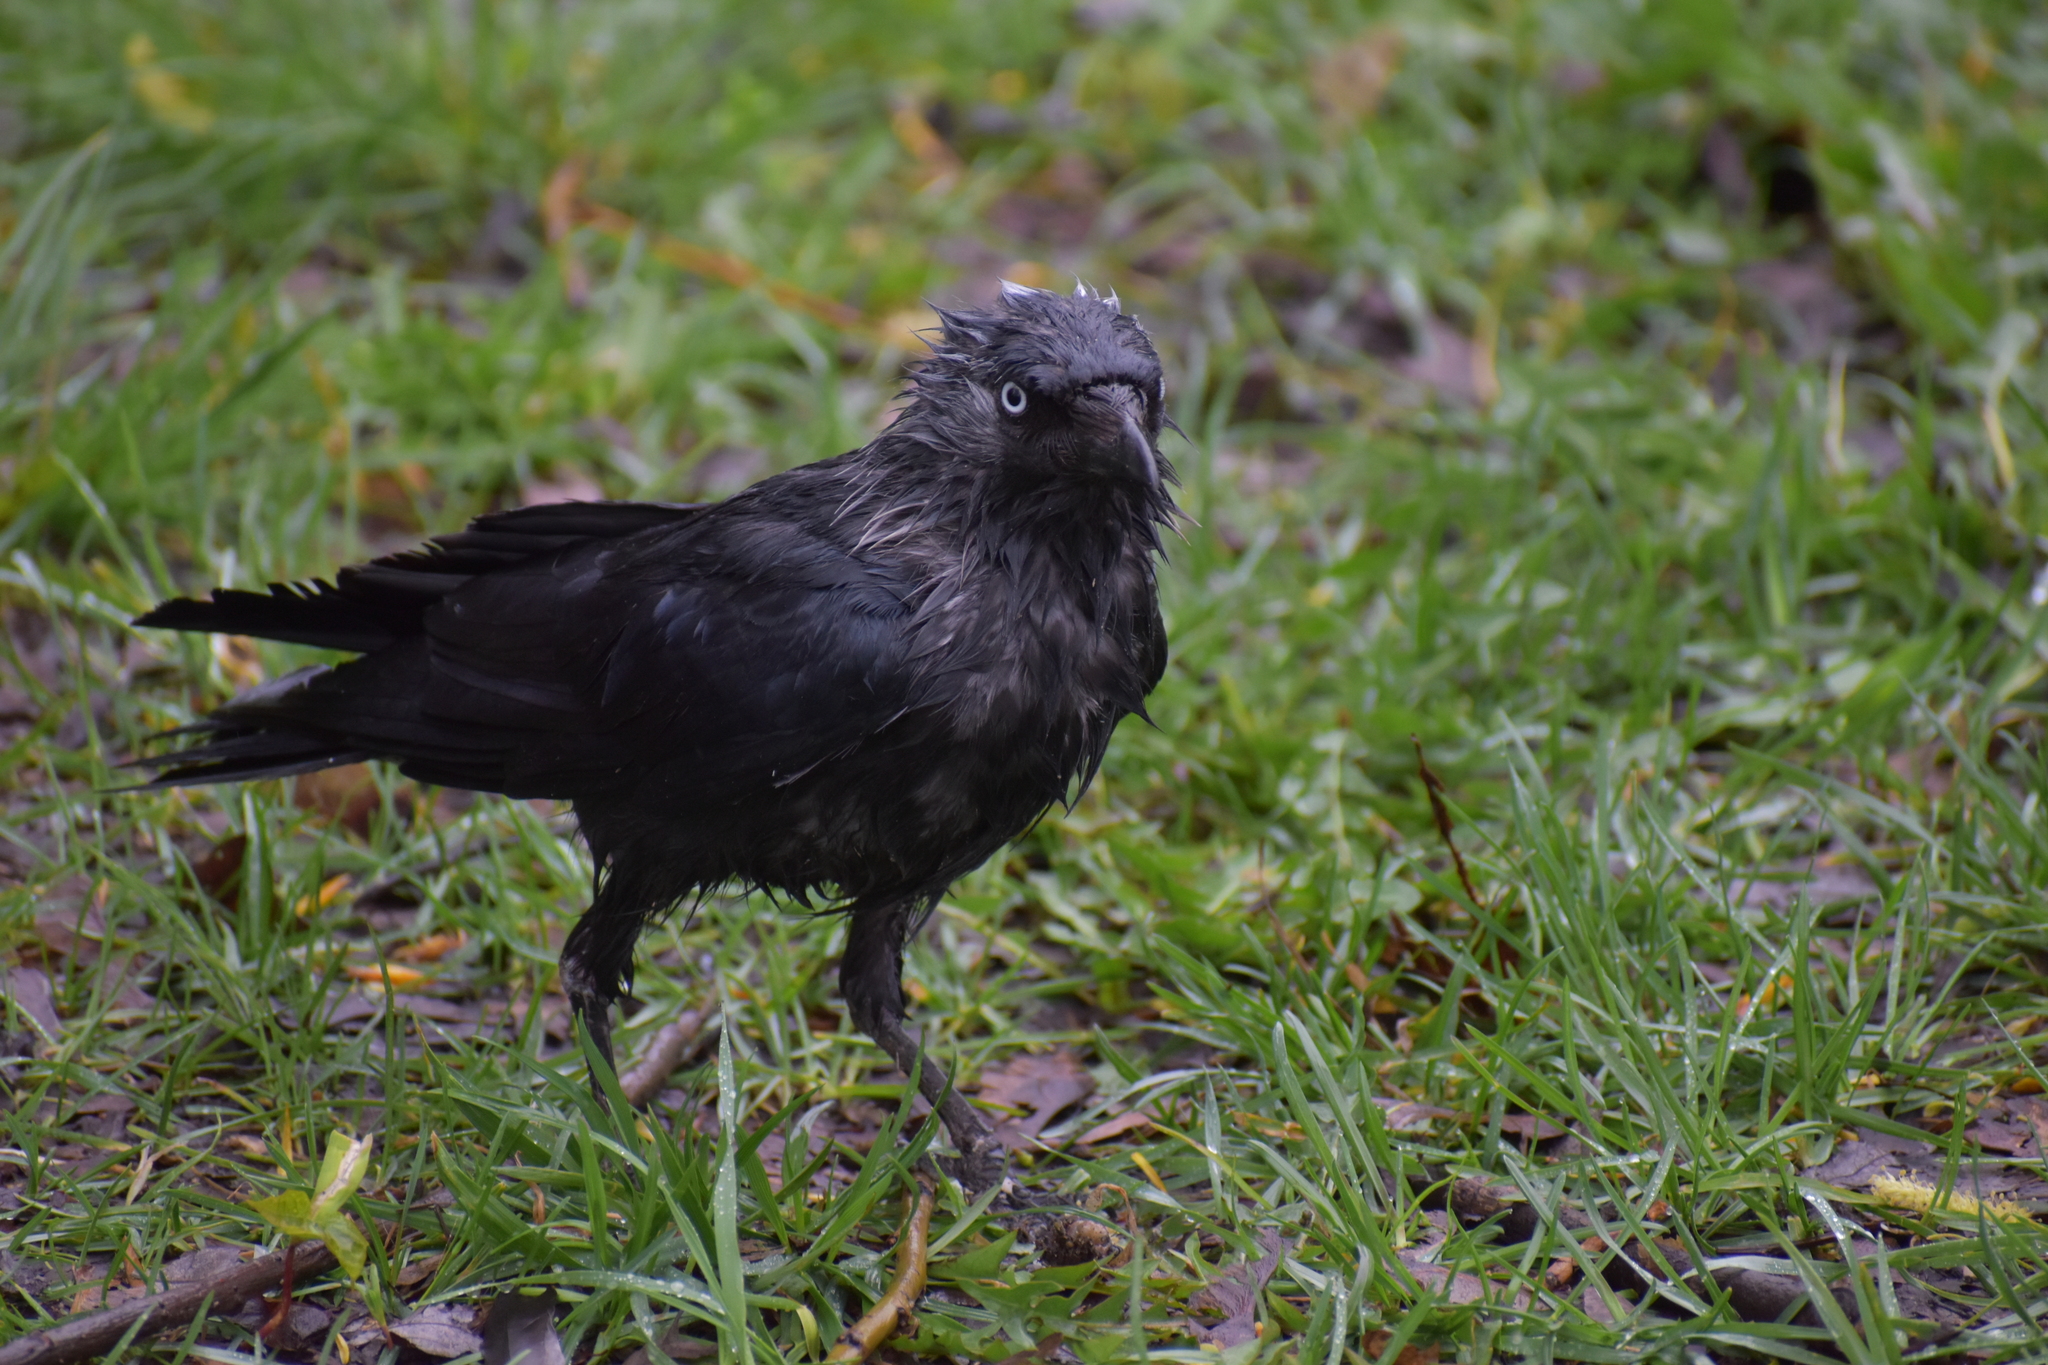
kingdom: Animalia
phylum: Chordata
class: Aves
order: Passeriformes
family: Corvidae
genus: Coloeus
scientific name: Coloeus monedula
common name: Western jackdaw
